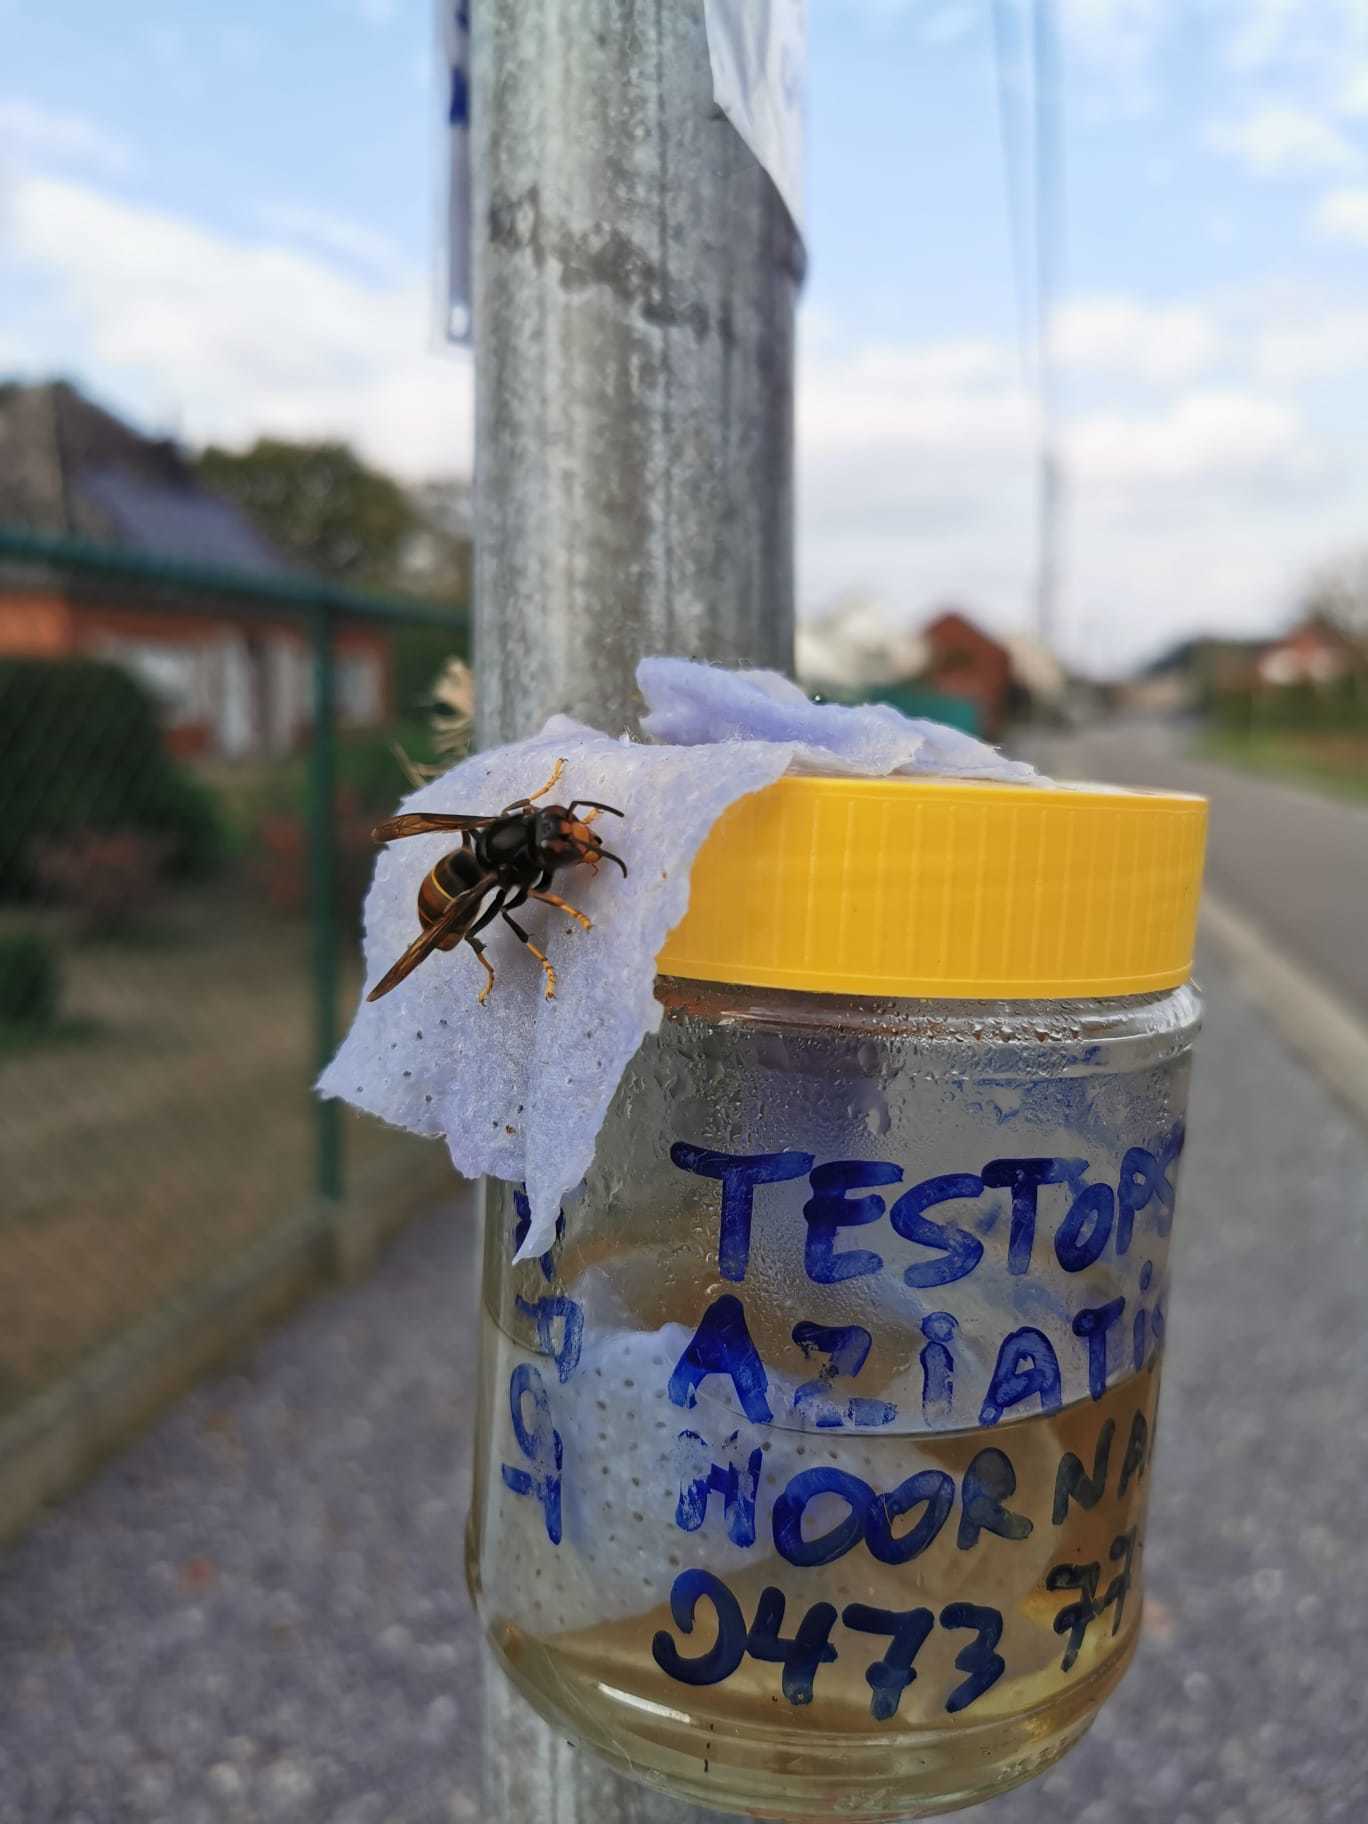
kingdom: Animalia
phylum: Arthropoda
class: Insecta
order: Hymenoptera
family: Vespidae
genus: Vespa
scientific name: Vespa velutina
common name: Asian hornet
